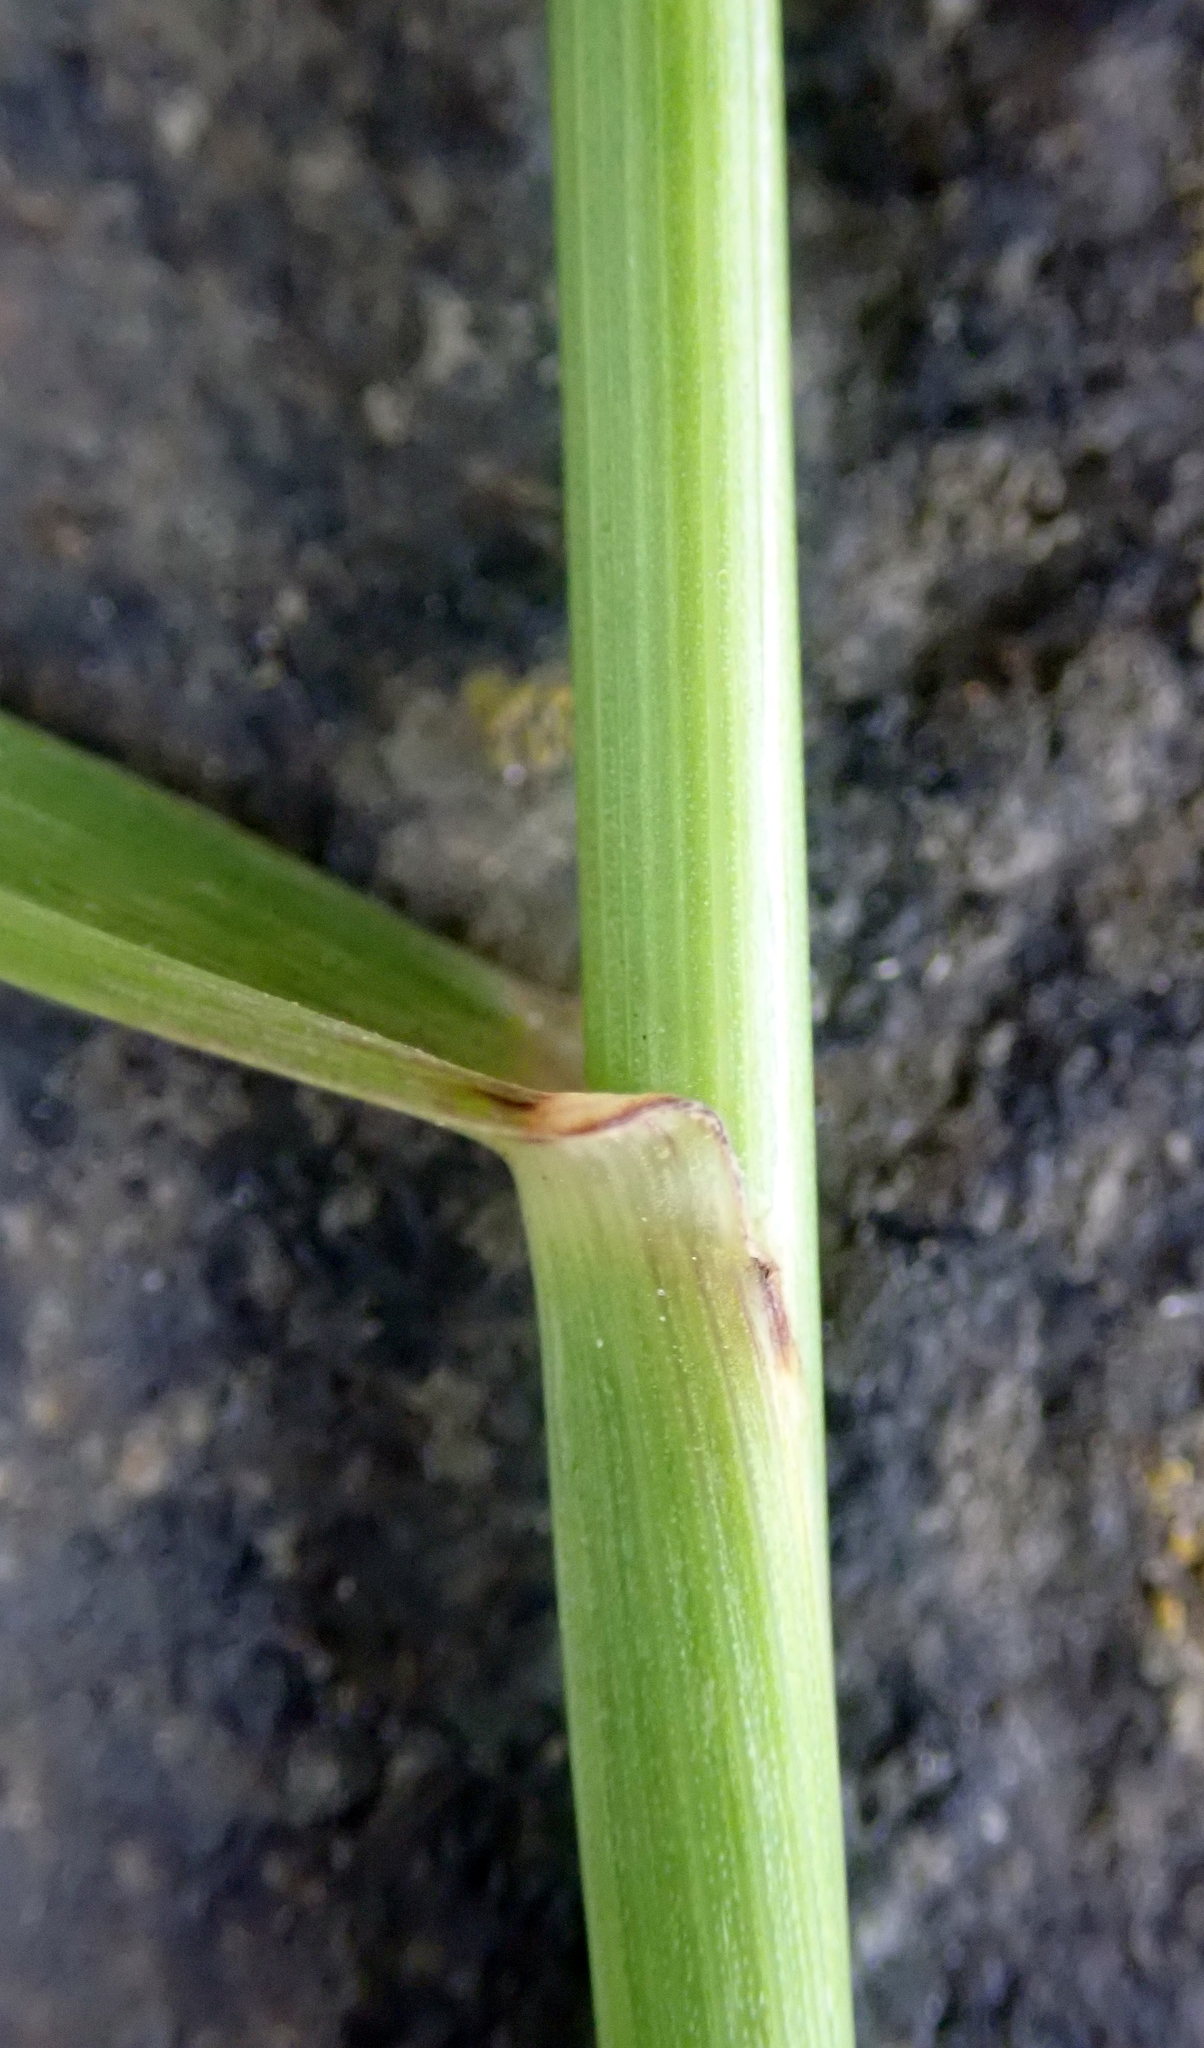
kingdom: Plantae
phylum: Tracheophyta
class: Liliopsida
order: Poales
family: Poaceae
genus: Lolium
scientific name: Lolium perenne
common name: Perennial ryegrass
